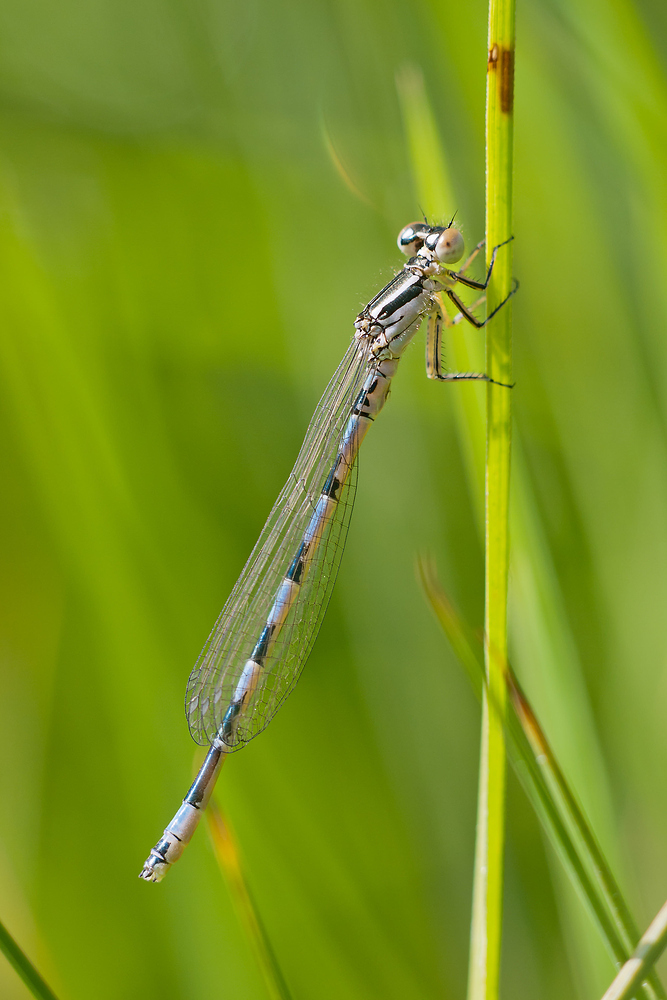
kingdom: Animalia
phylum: Arthropoda
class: Insecta
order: Odonata
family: Coenagrionidae
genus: Coenagrion
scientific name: Coenagrion mercuriale
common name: Southern damselfly
